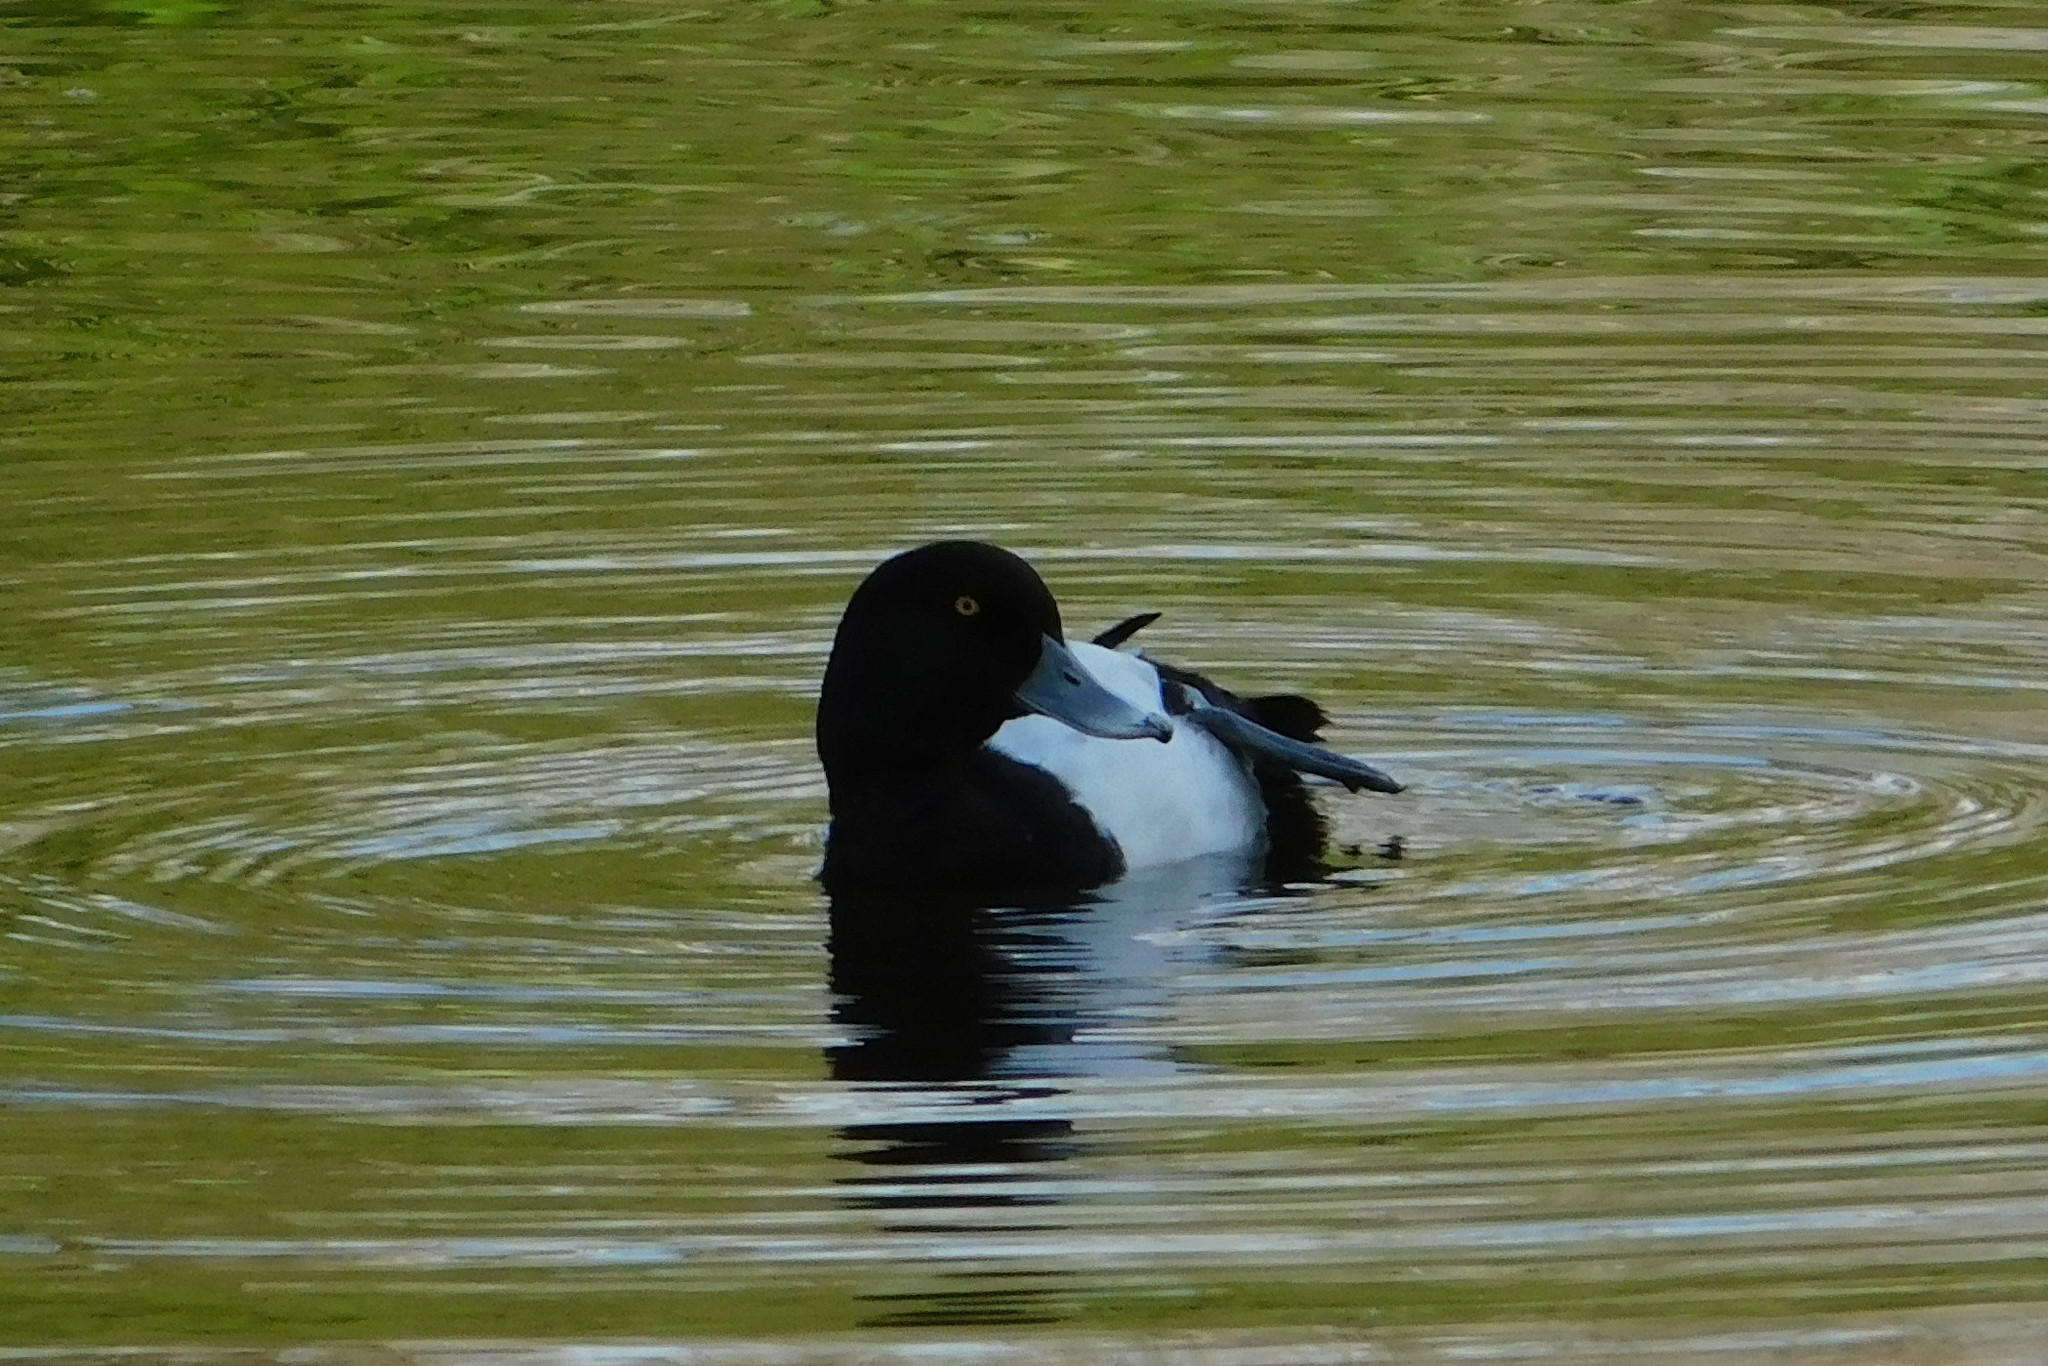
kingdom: Animalia
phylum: Chordata
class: Aves
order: Anseriformes
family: Anatidae
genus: Aythya
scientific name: Aythya fuligula
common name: Tufted duck
